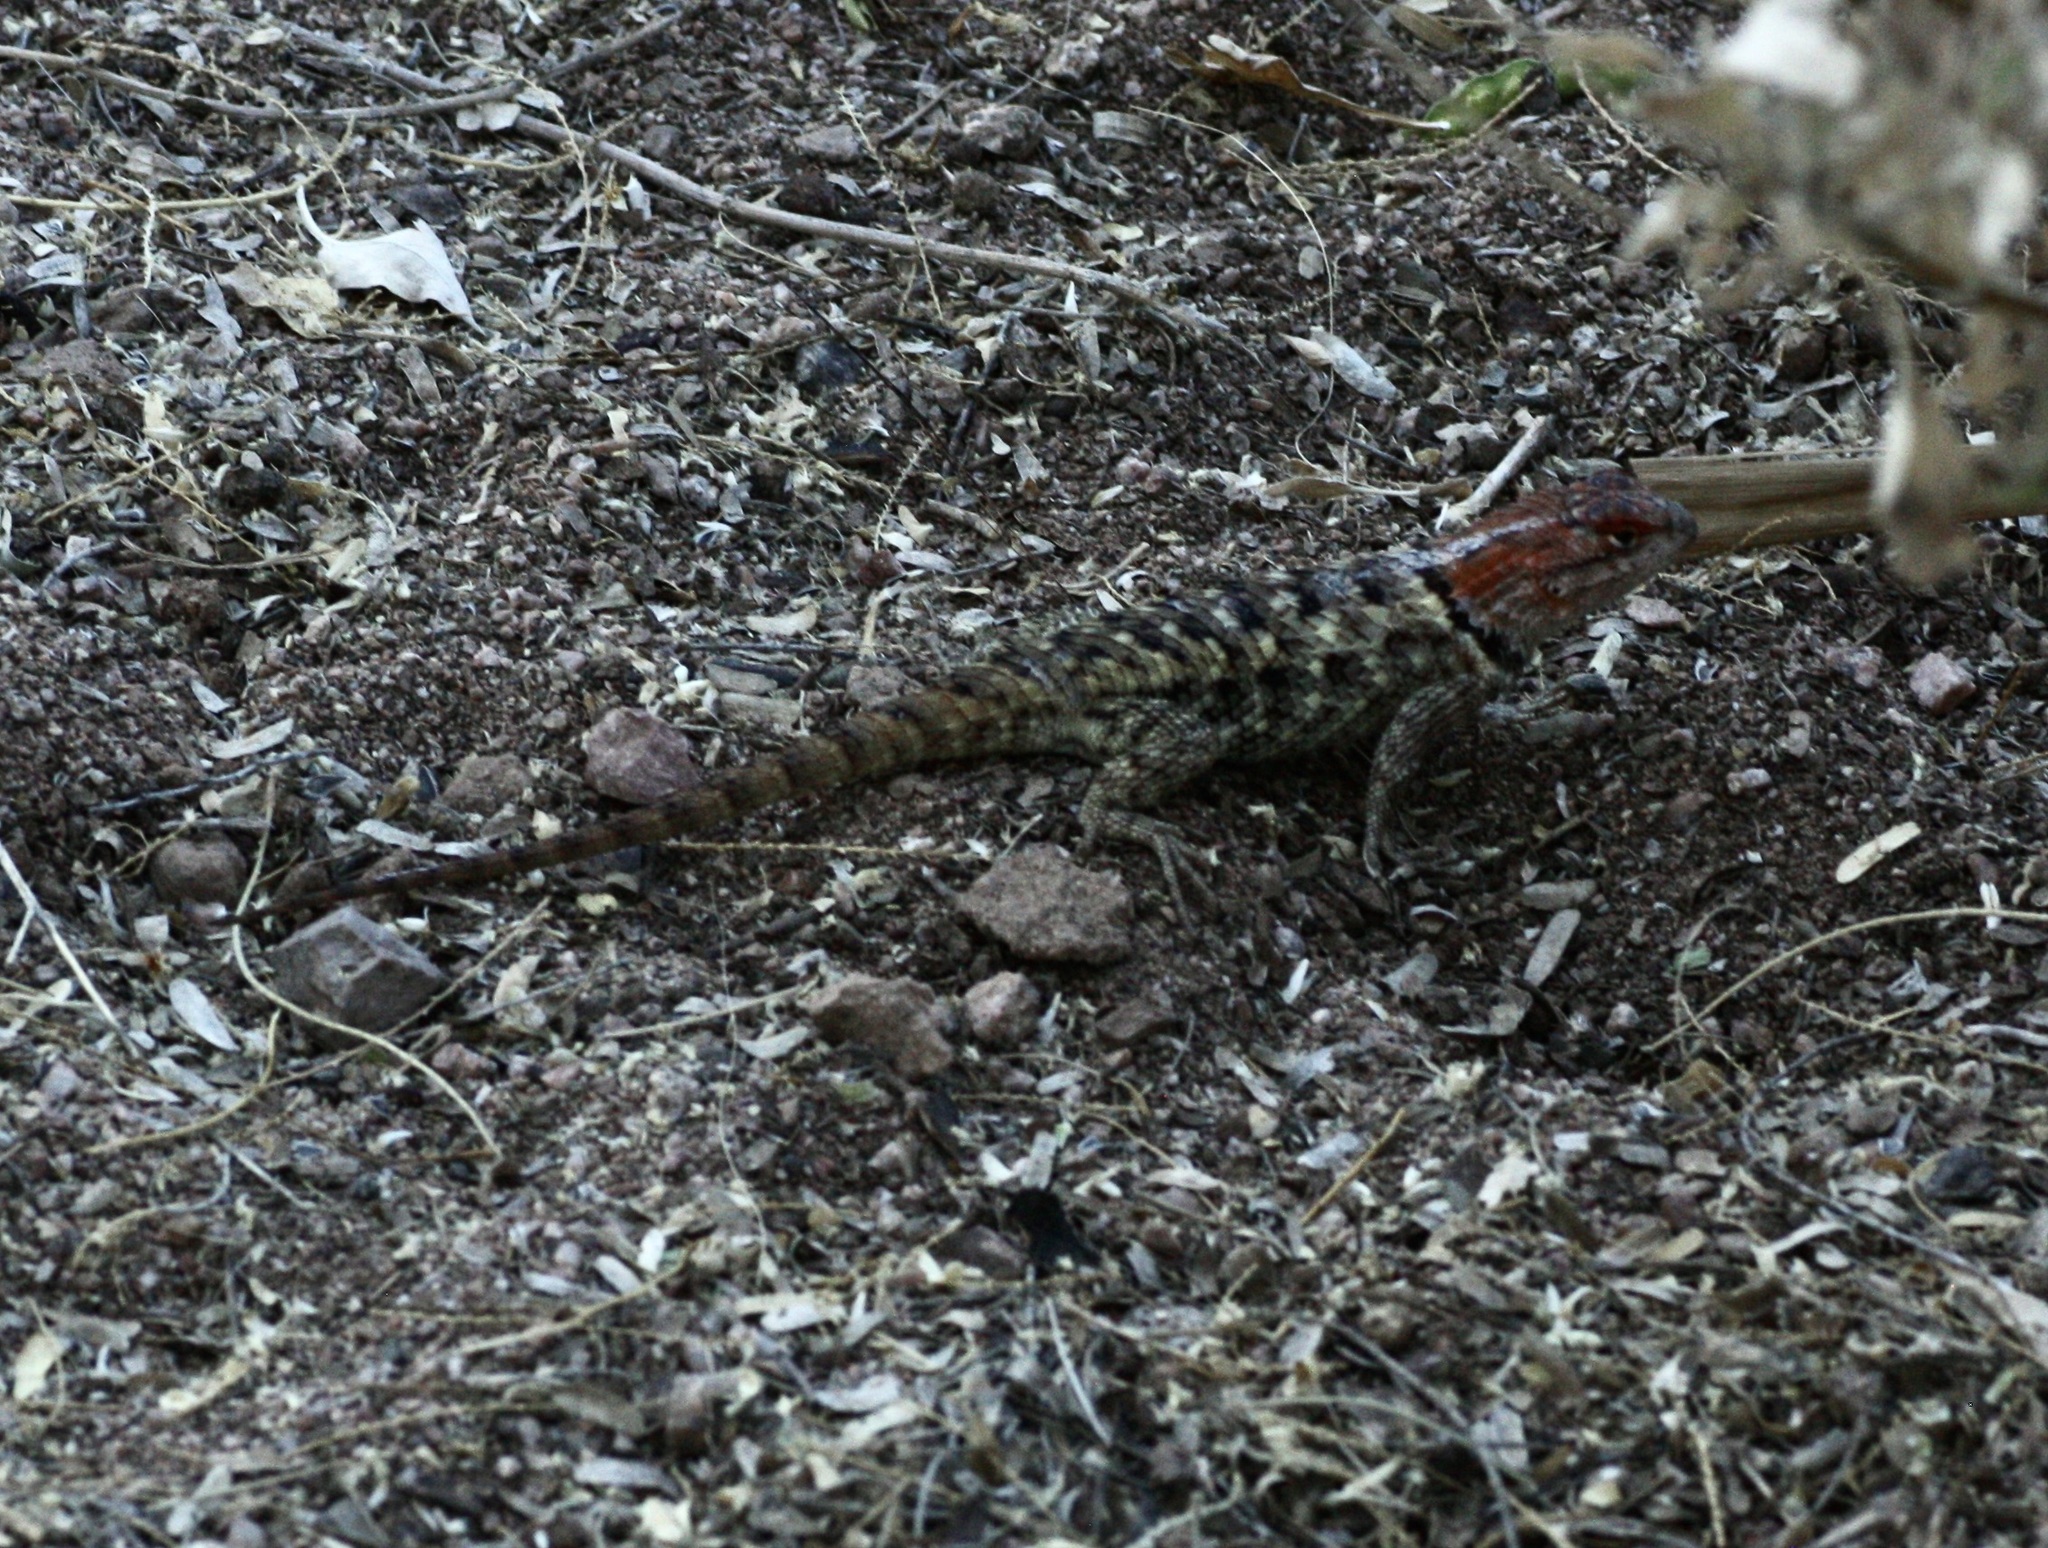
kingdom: Animalia
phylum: Chordata
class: Squamata
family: Phrynosomatidae
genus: Sceloporus
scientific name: Sceloporus magister
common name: Desert spiny lizard
